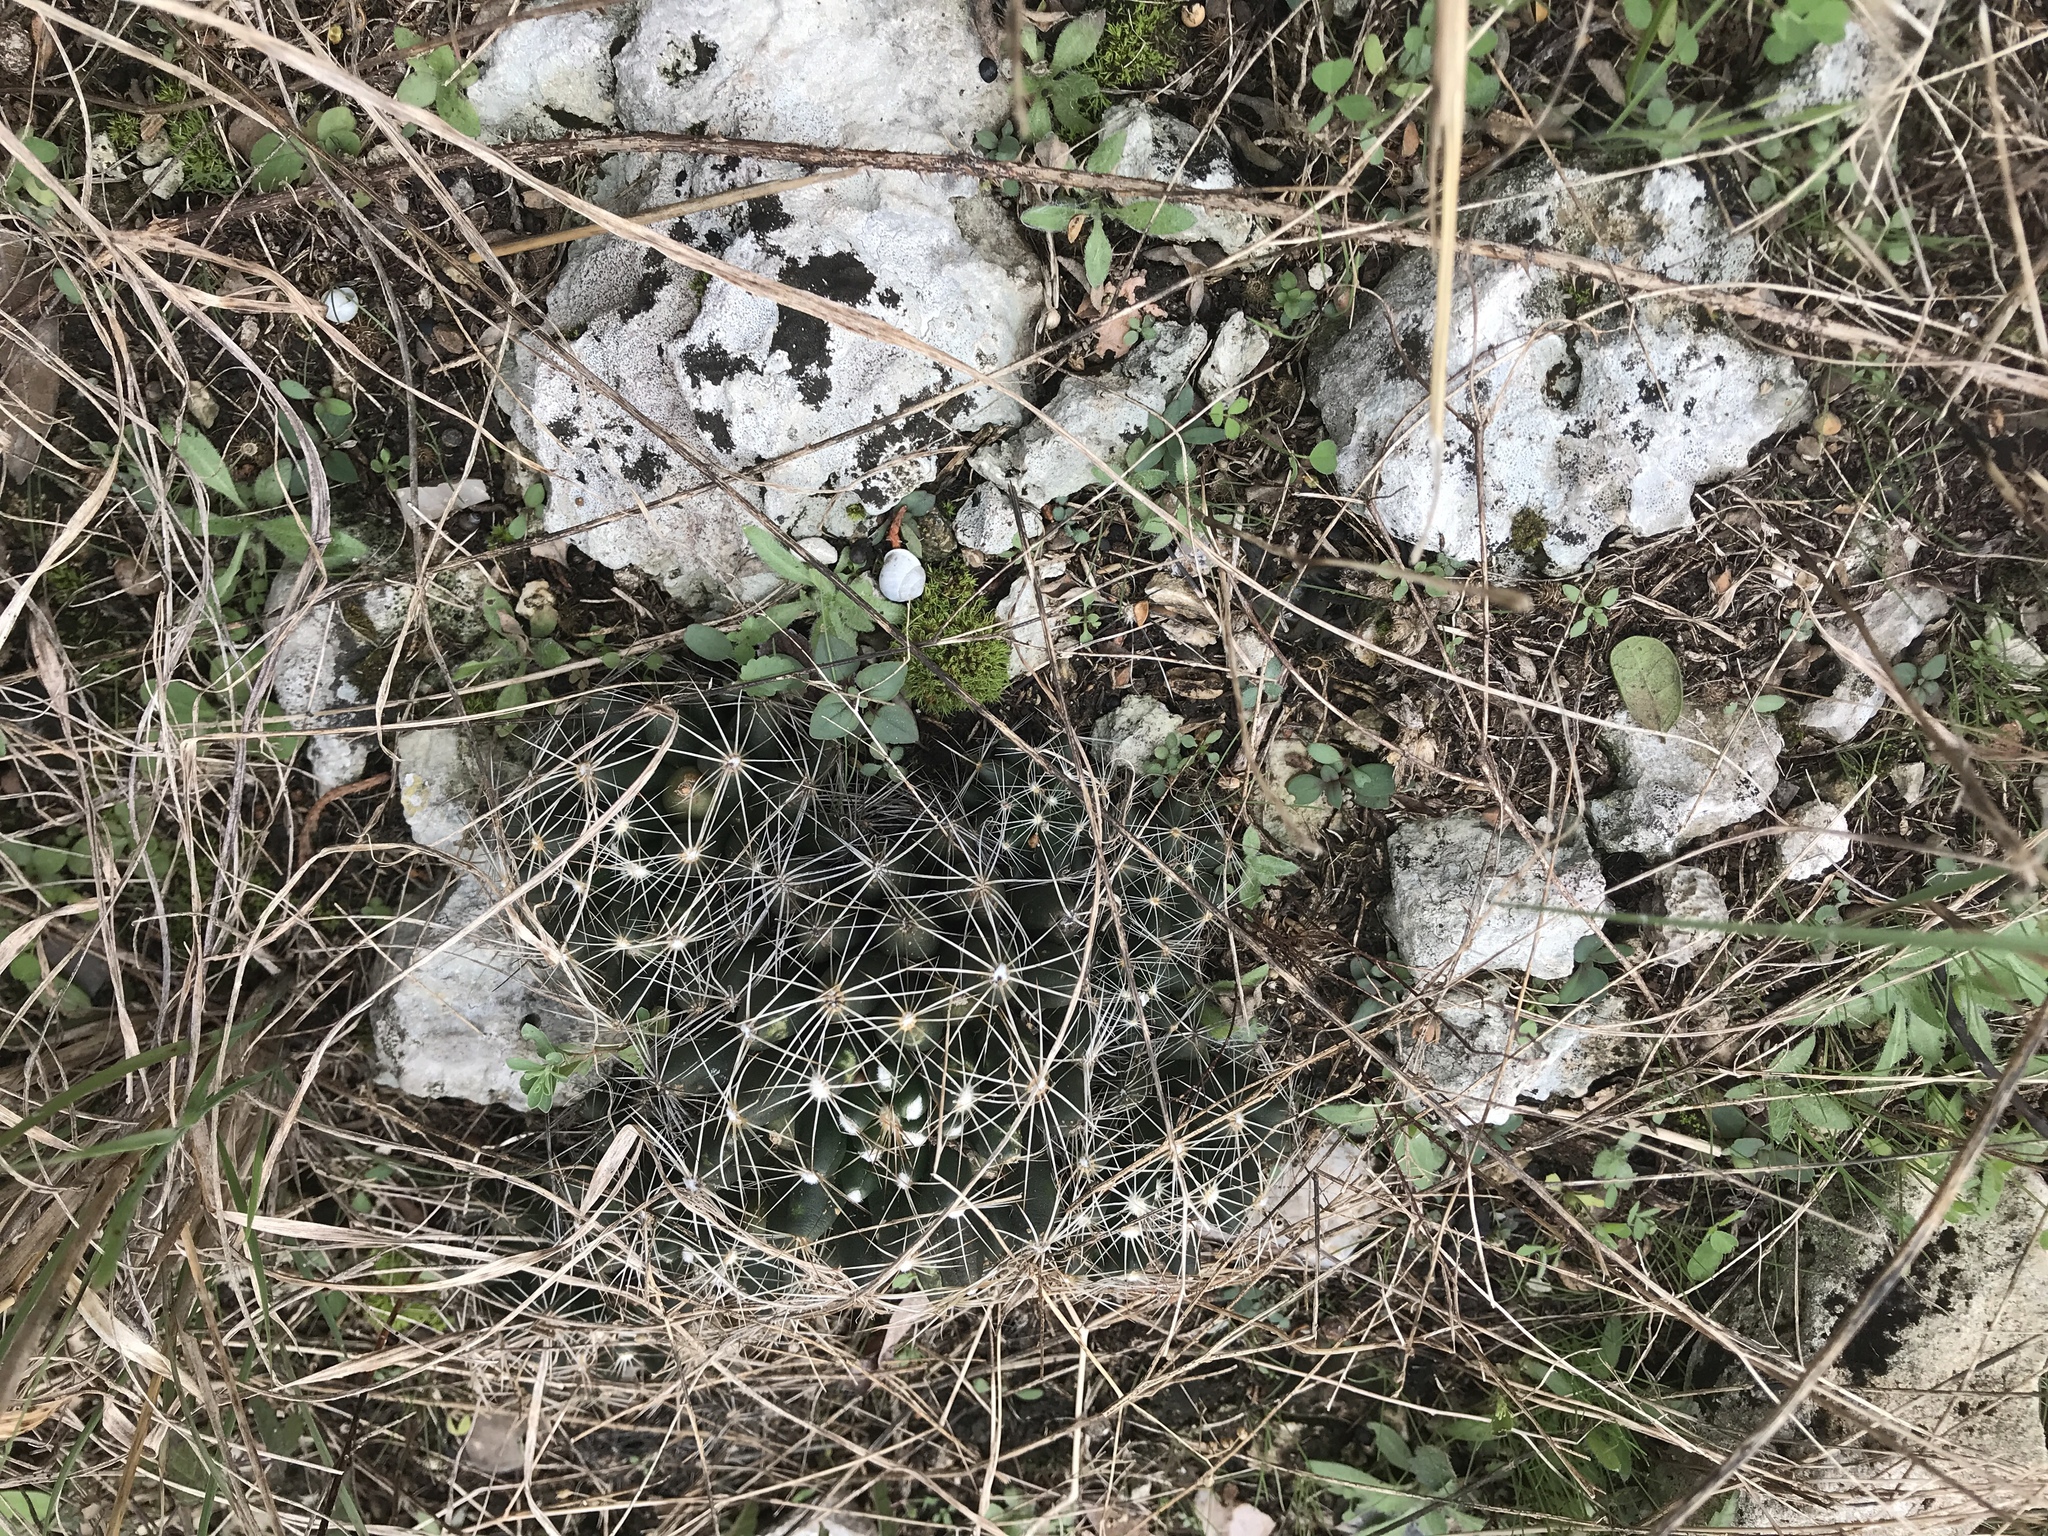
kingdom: Plantae
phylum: Tracheophyta
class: Magnoliopsida
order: Caryophyllales
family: Cactaceae
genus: Pelecyphora
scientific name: Pelecyphora missouriensis
